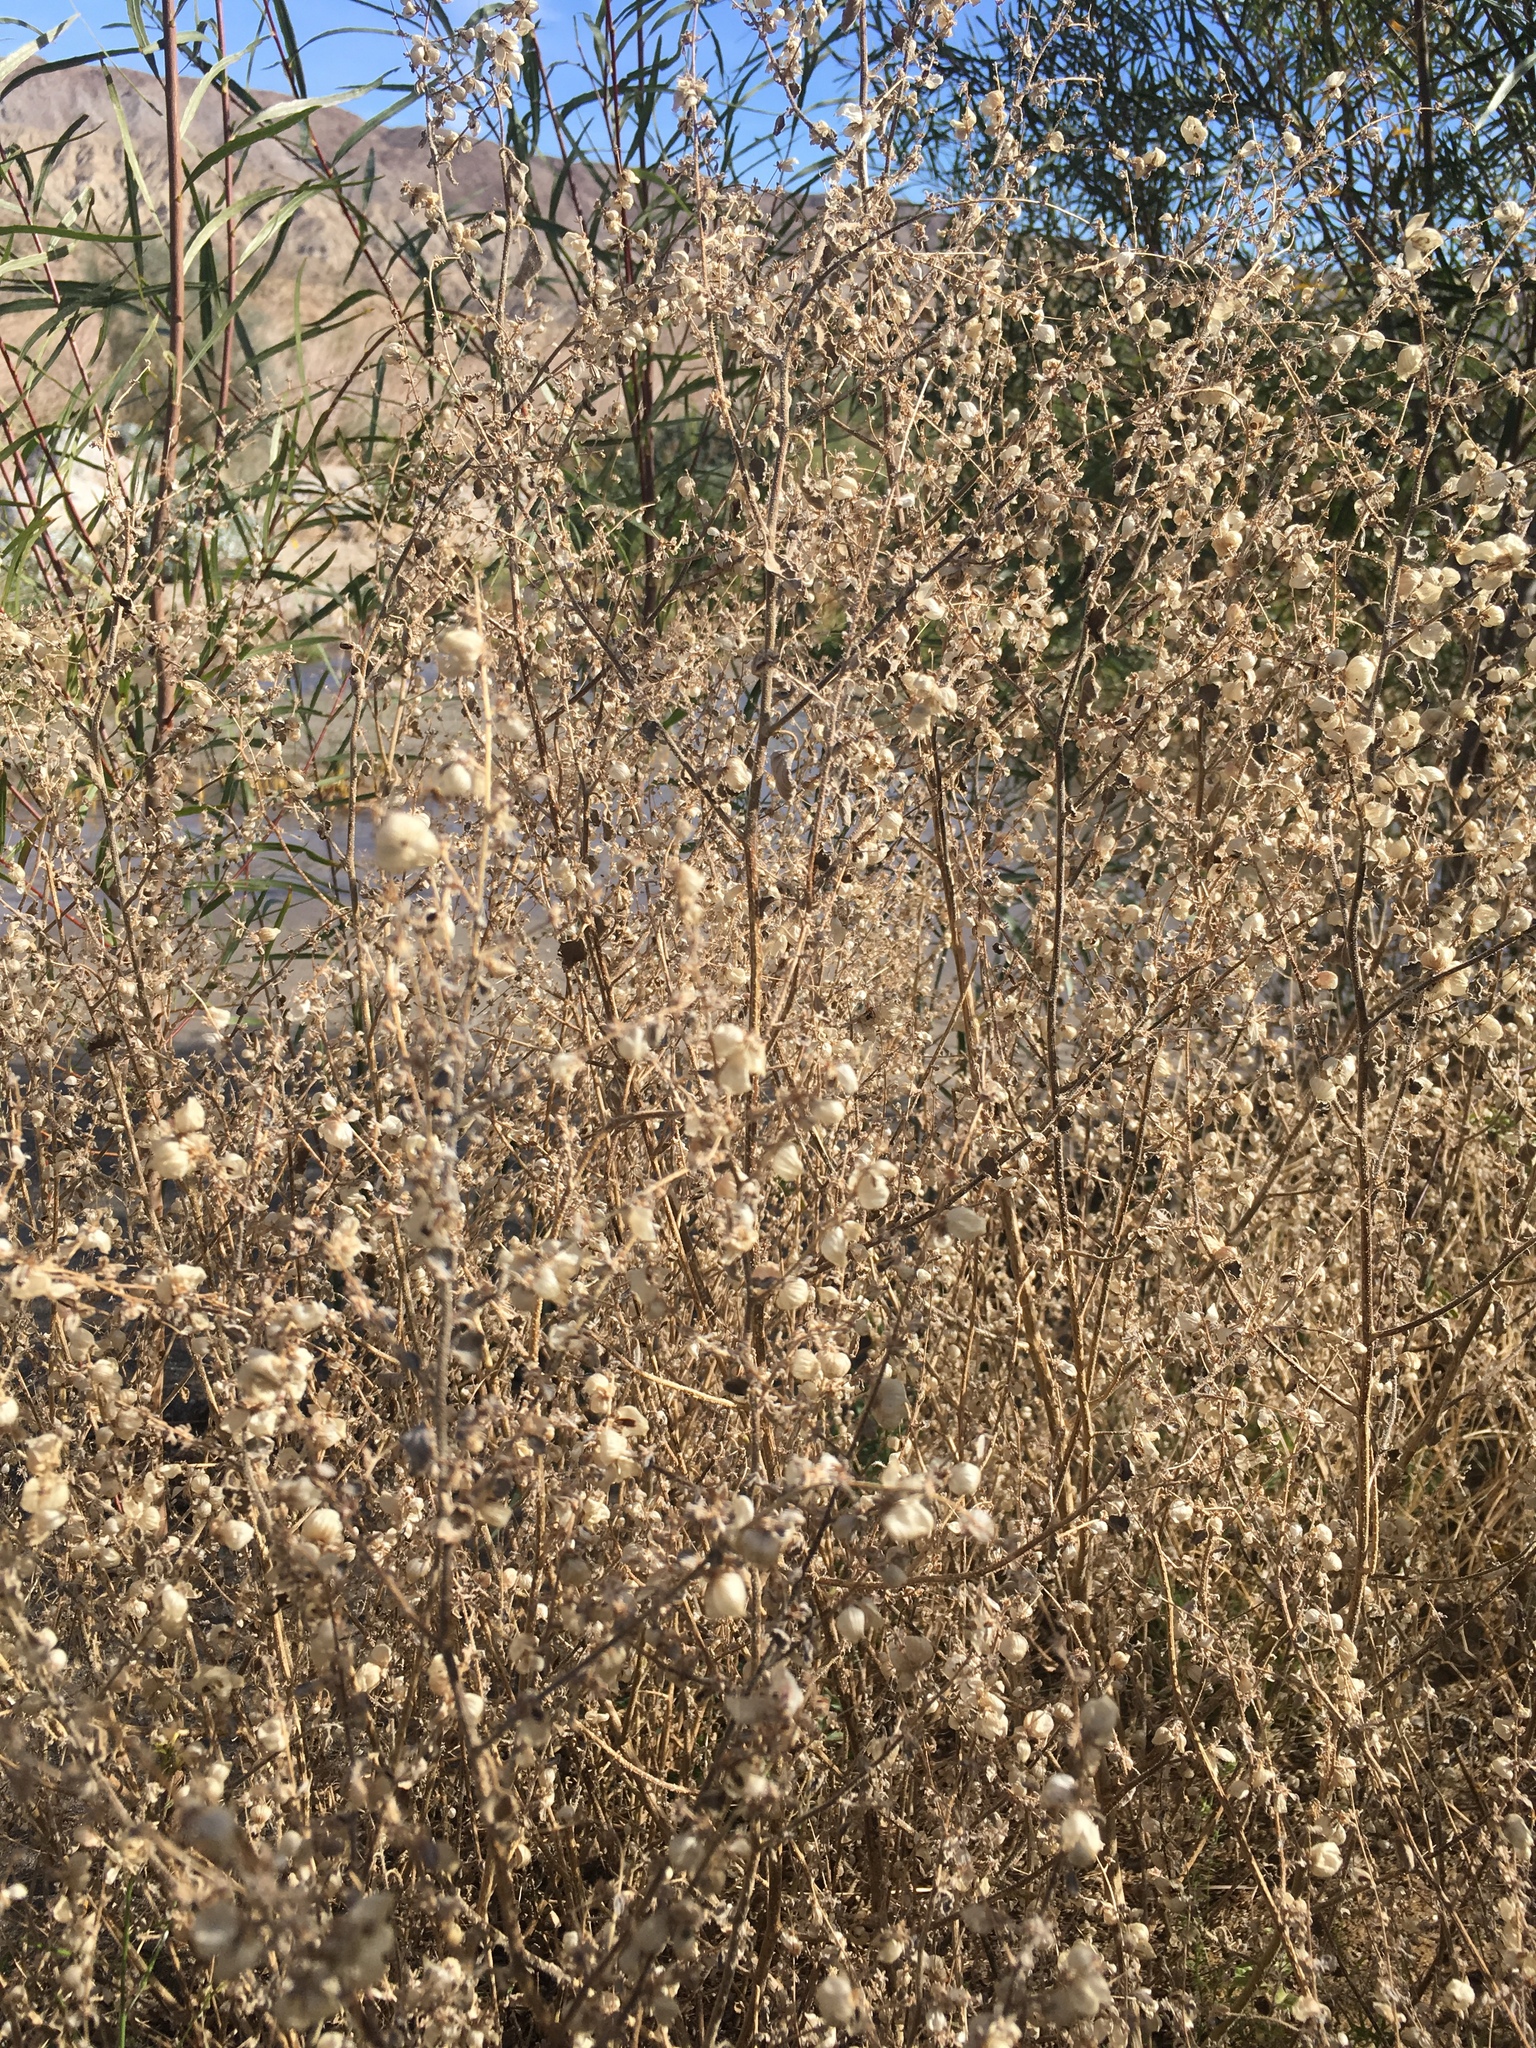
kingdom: Plantae
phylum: Tracheophyta
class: Magnoliopsida
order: Asterales
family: Asteraceae
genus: Dicoria
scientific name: Dicoria canescens
